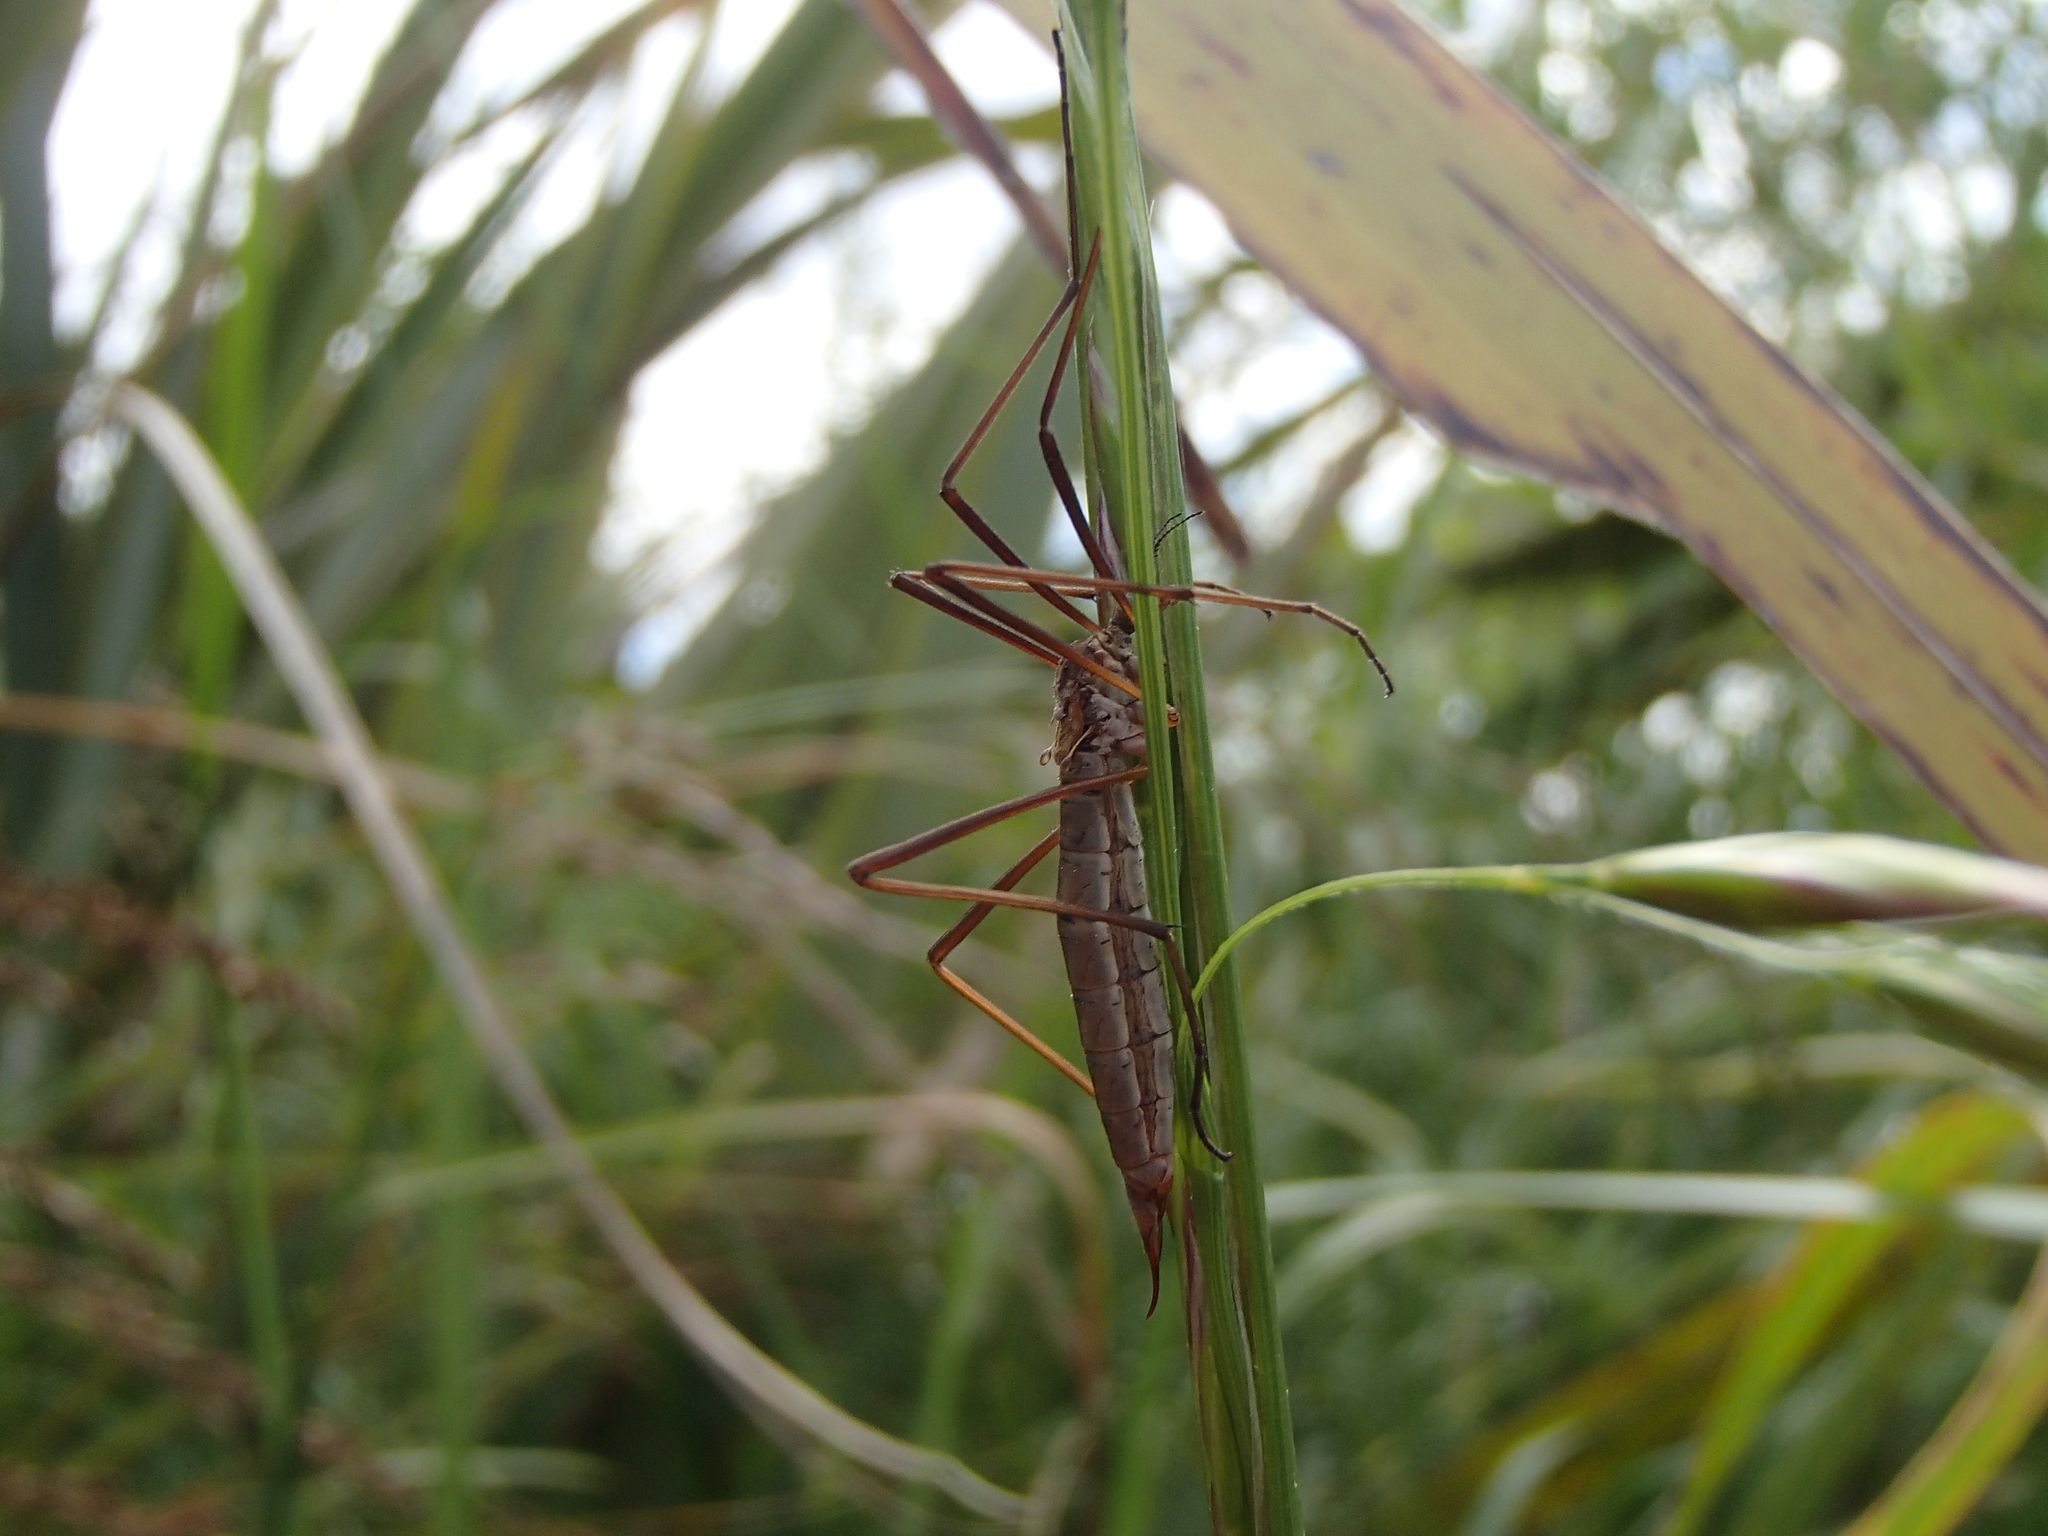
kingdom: Animalia
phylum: Arthropoda
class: Insecta
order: Diptera
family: Limoniidae
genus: Gynoplistia
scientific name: Gynoplistia pedestris
